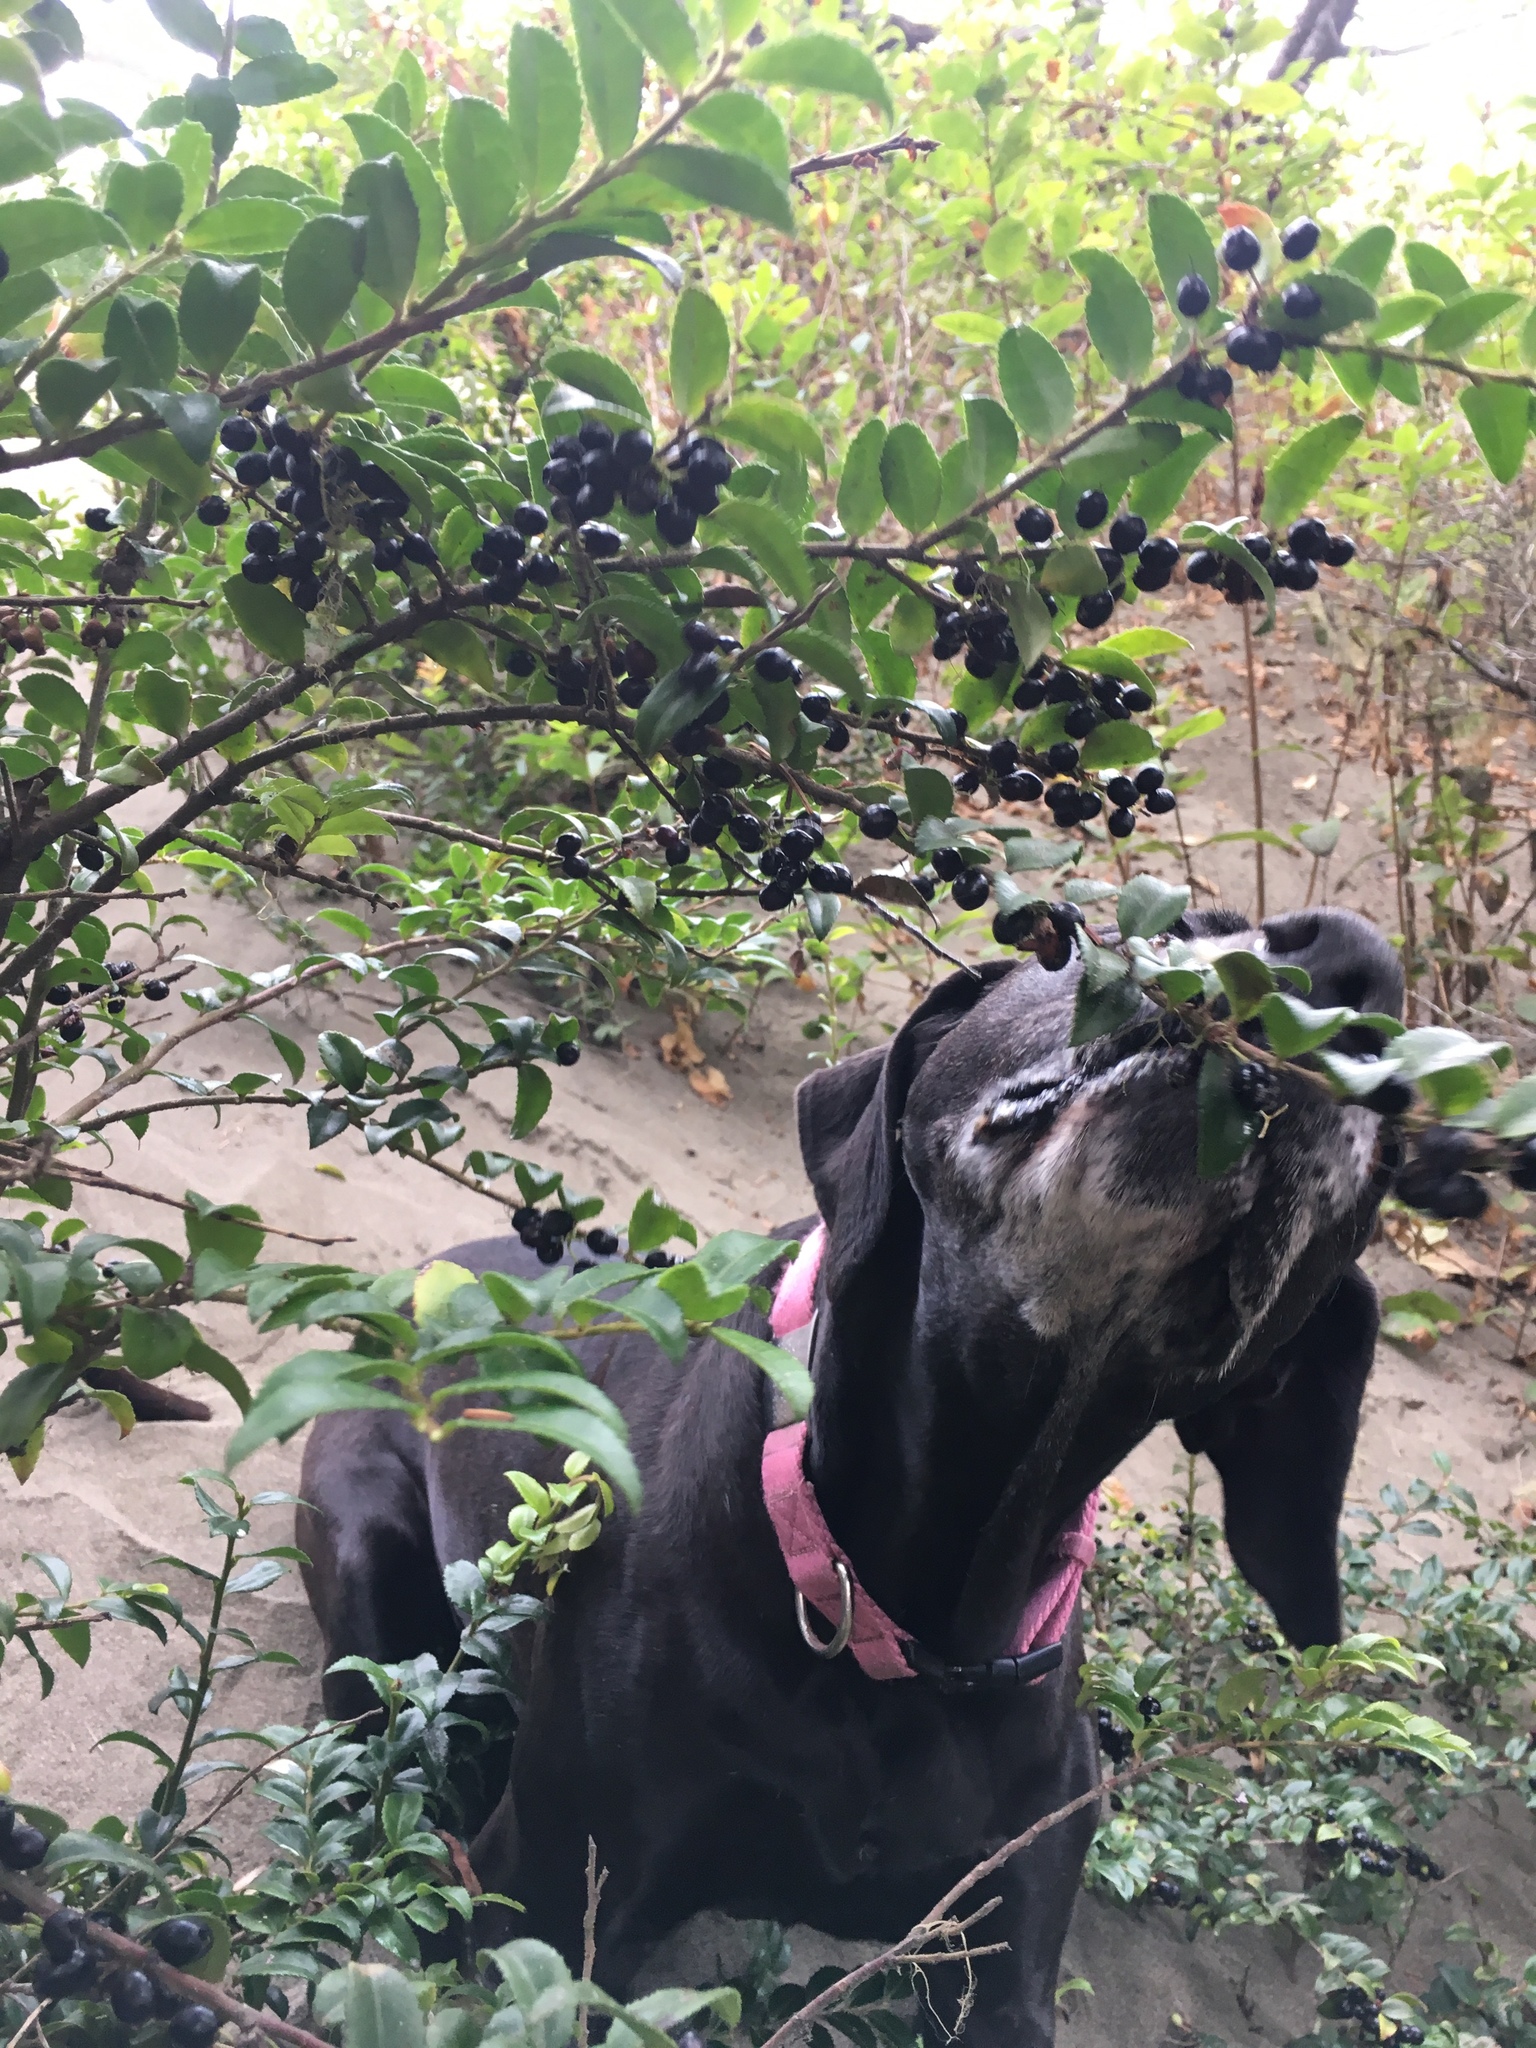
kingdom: Plantae
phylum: Tracheophyta
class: Magnoliopsida
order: Ericales
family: Ericaceae
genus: Vaccinium
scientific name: Vaccinium ovatum
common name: California-huckleberry
